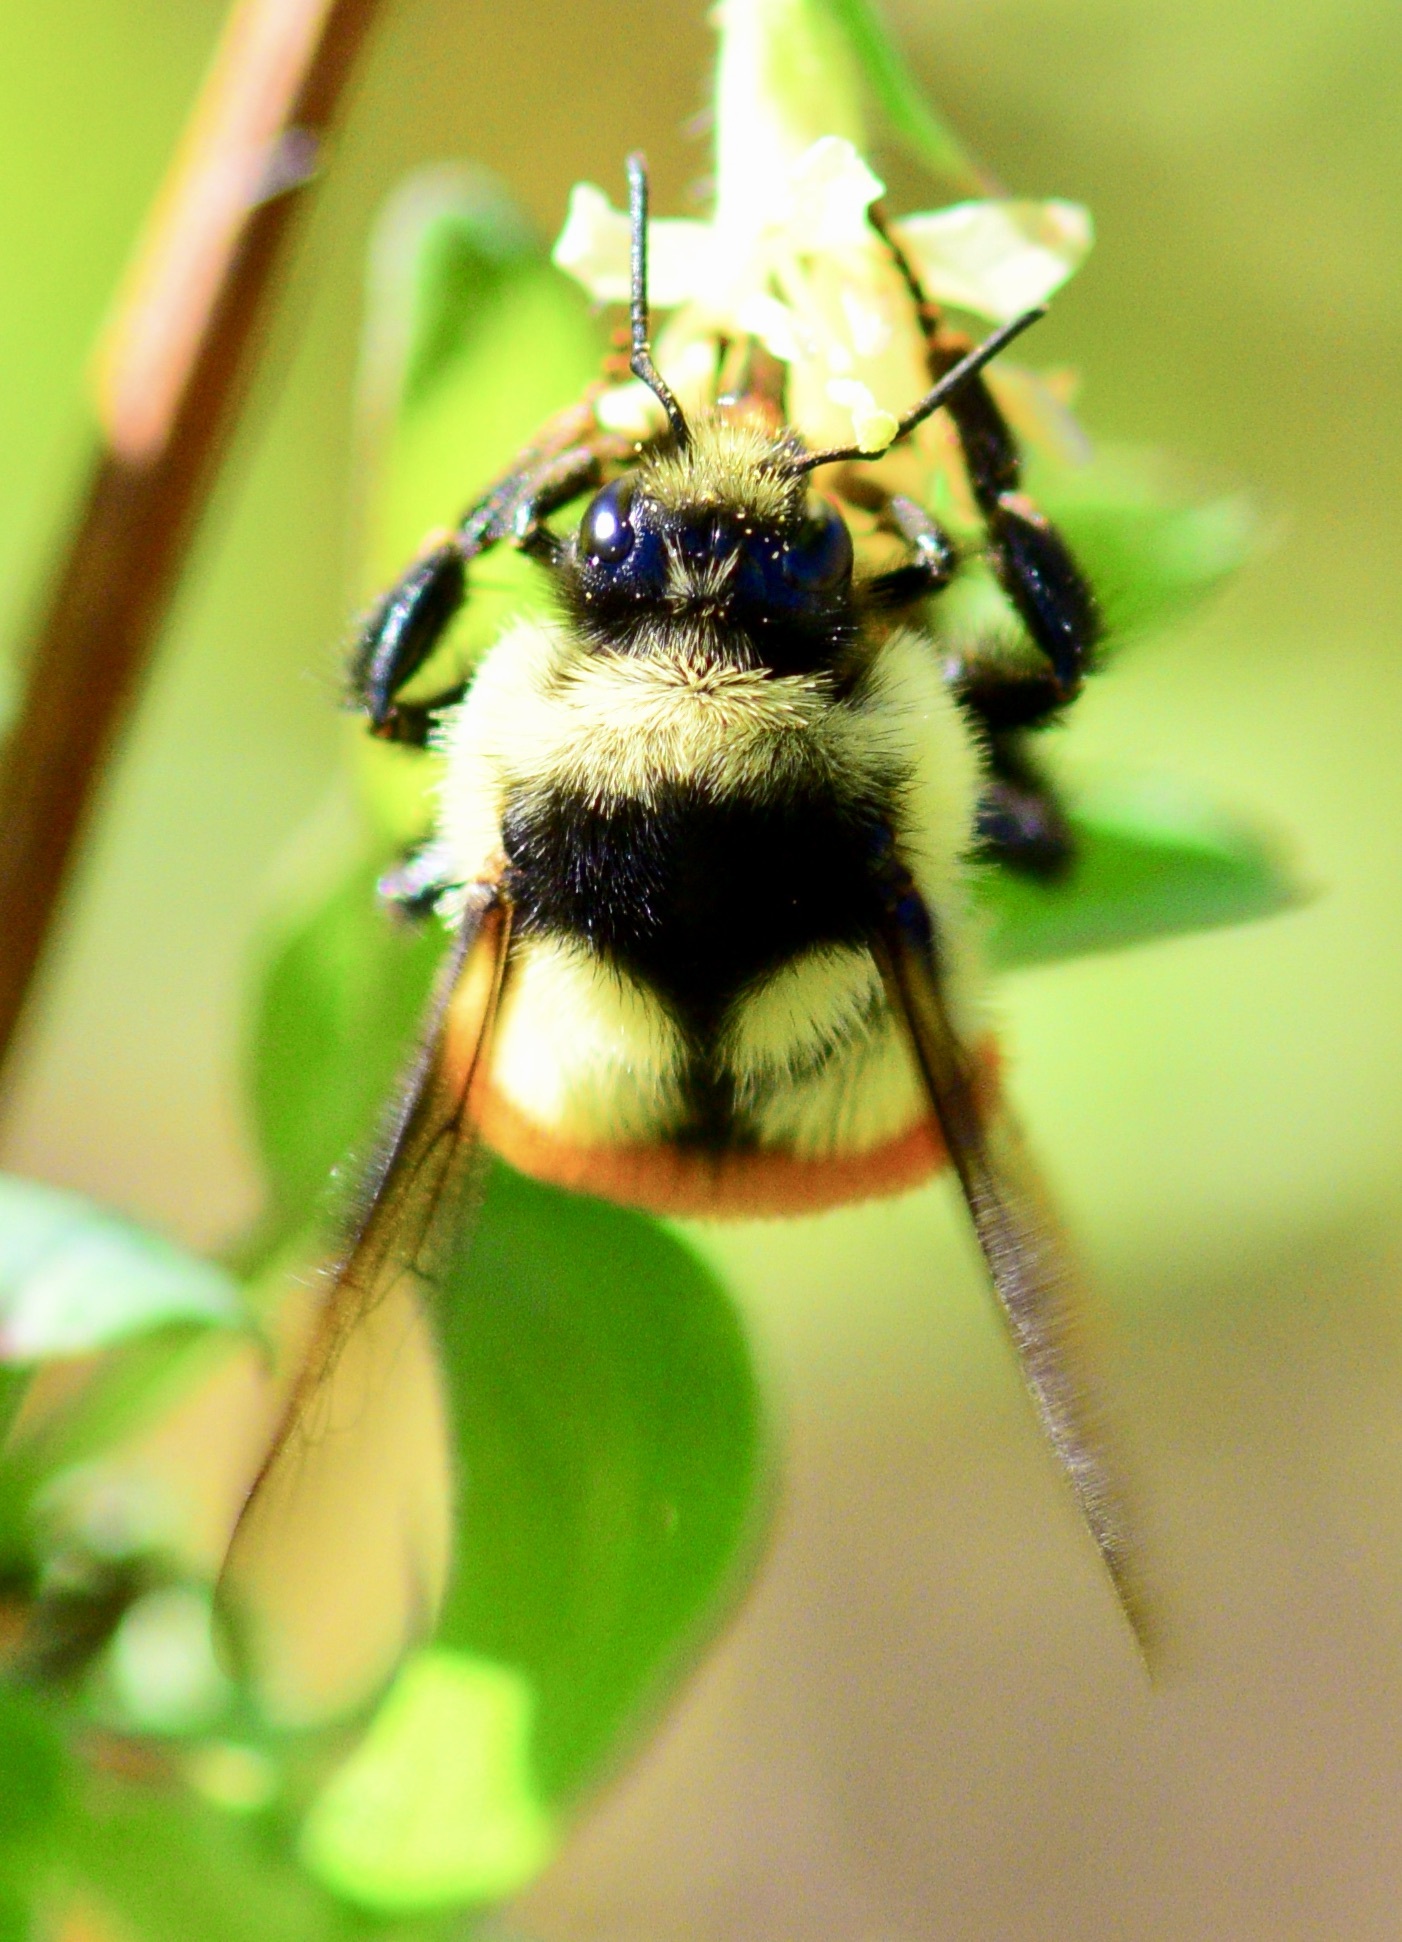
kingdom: Animalia
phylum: Arthropoda
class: Insecta
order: Hymenoptera
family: Apidae
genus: Bombus
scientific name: Bombus ternarius
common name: Tri-colored bumble bee
